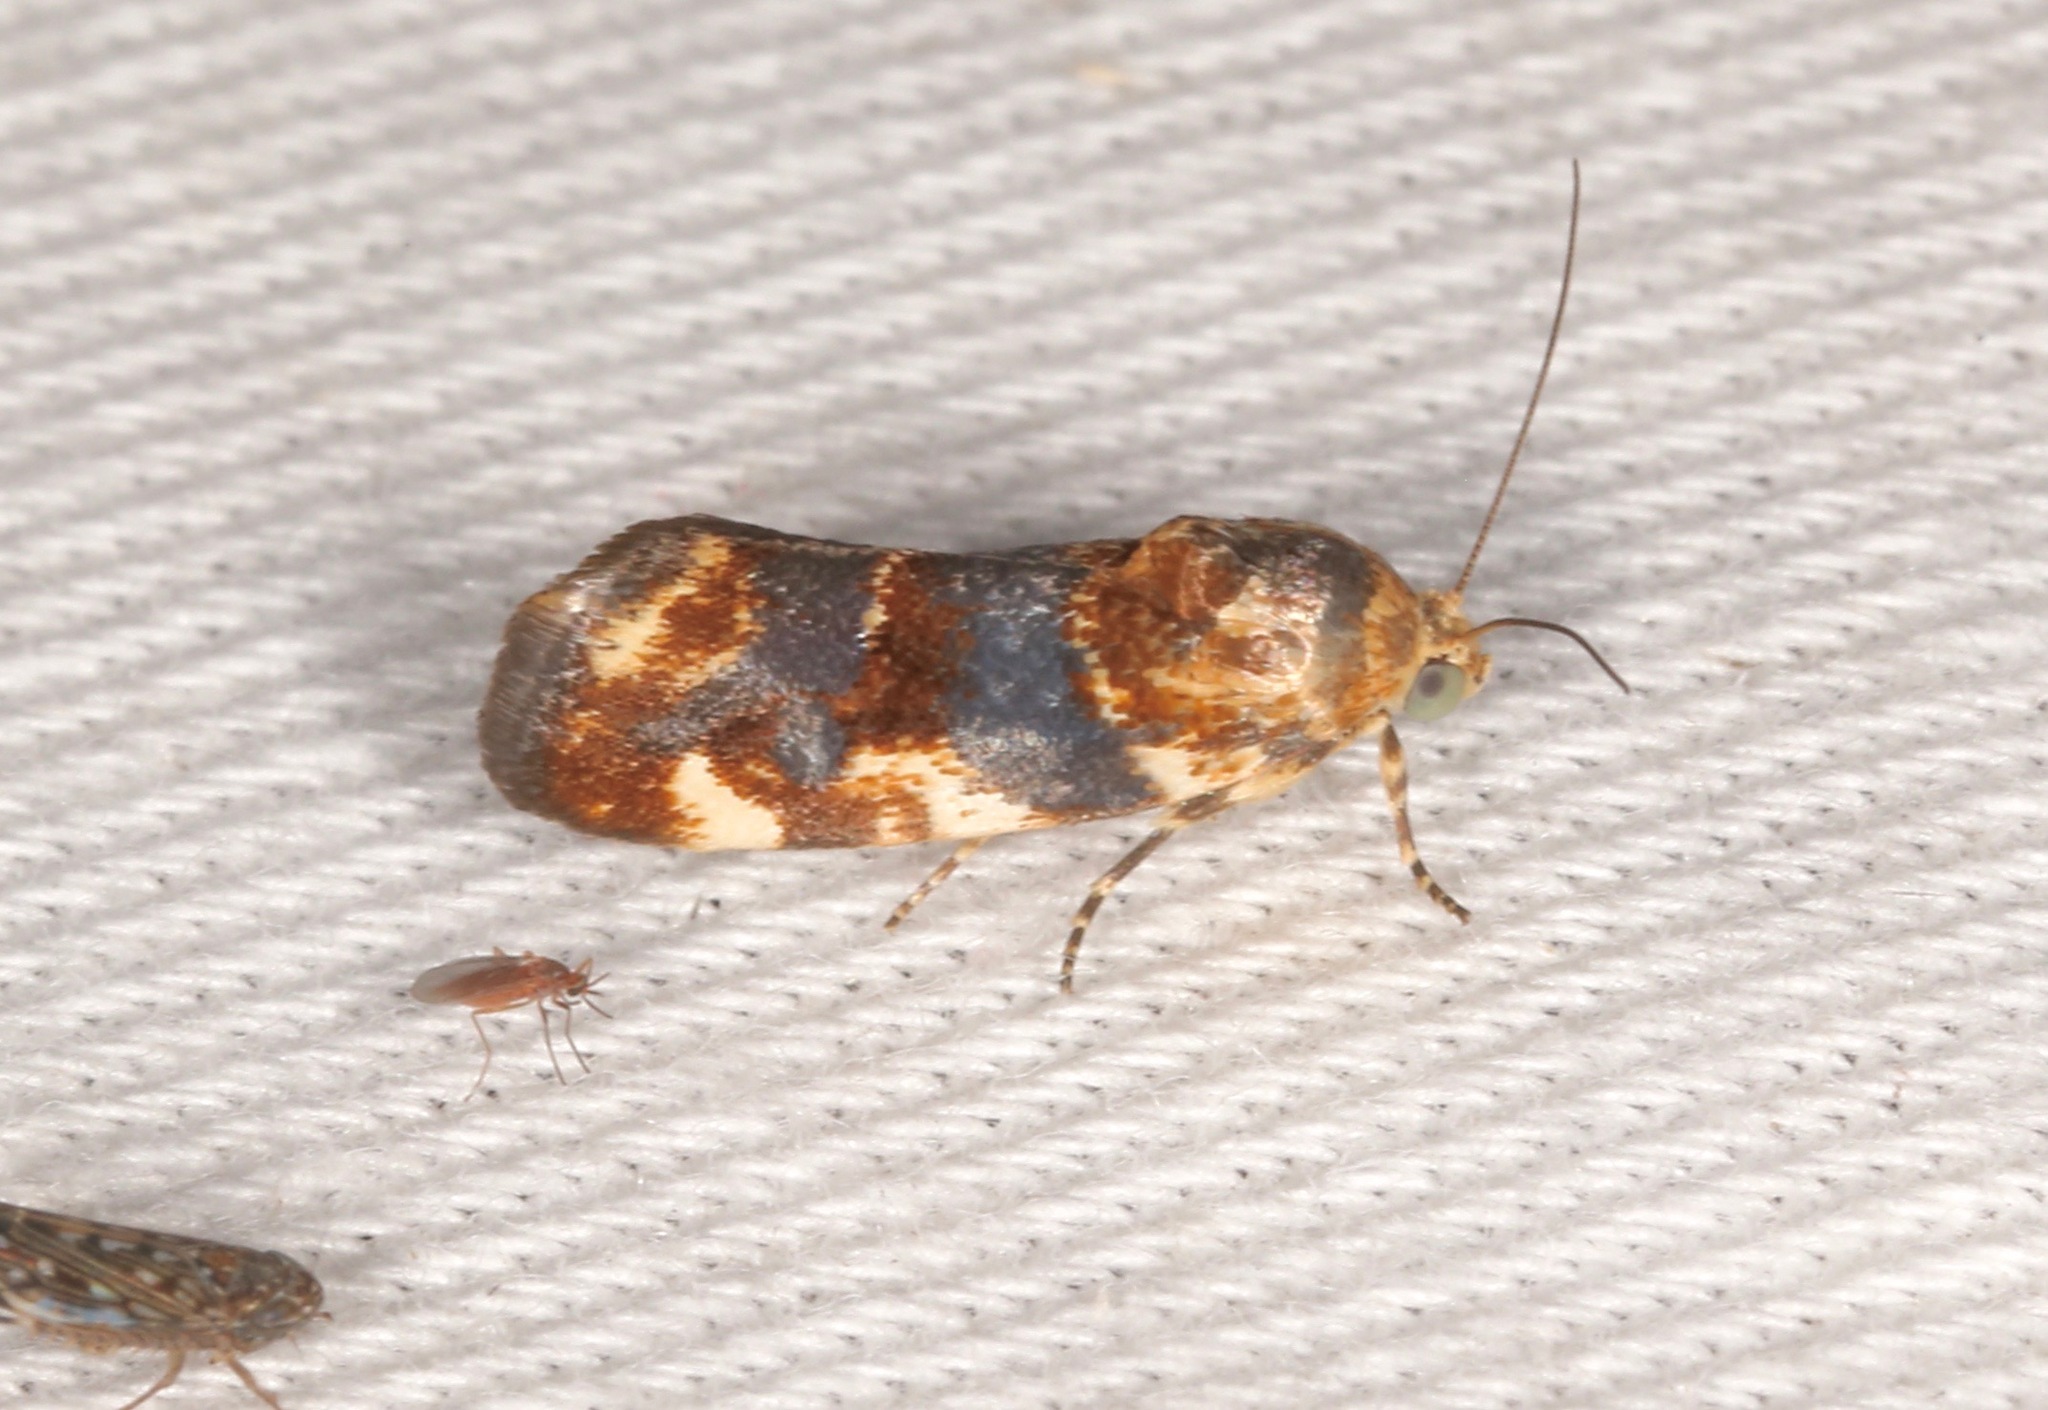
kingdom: Animalia
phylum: Arthropoda
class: Insecta
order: Lepidoptera
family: Noctuidae
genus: Acontia
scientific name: Acontia obatra
